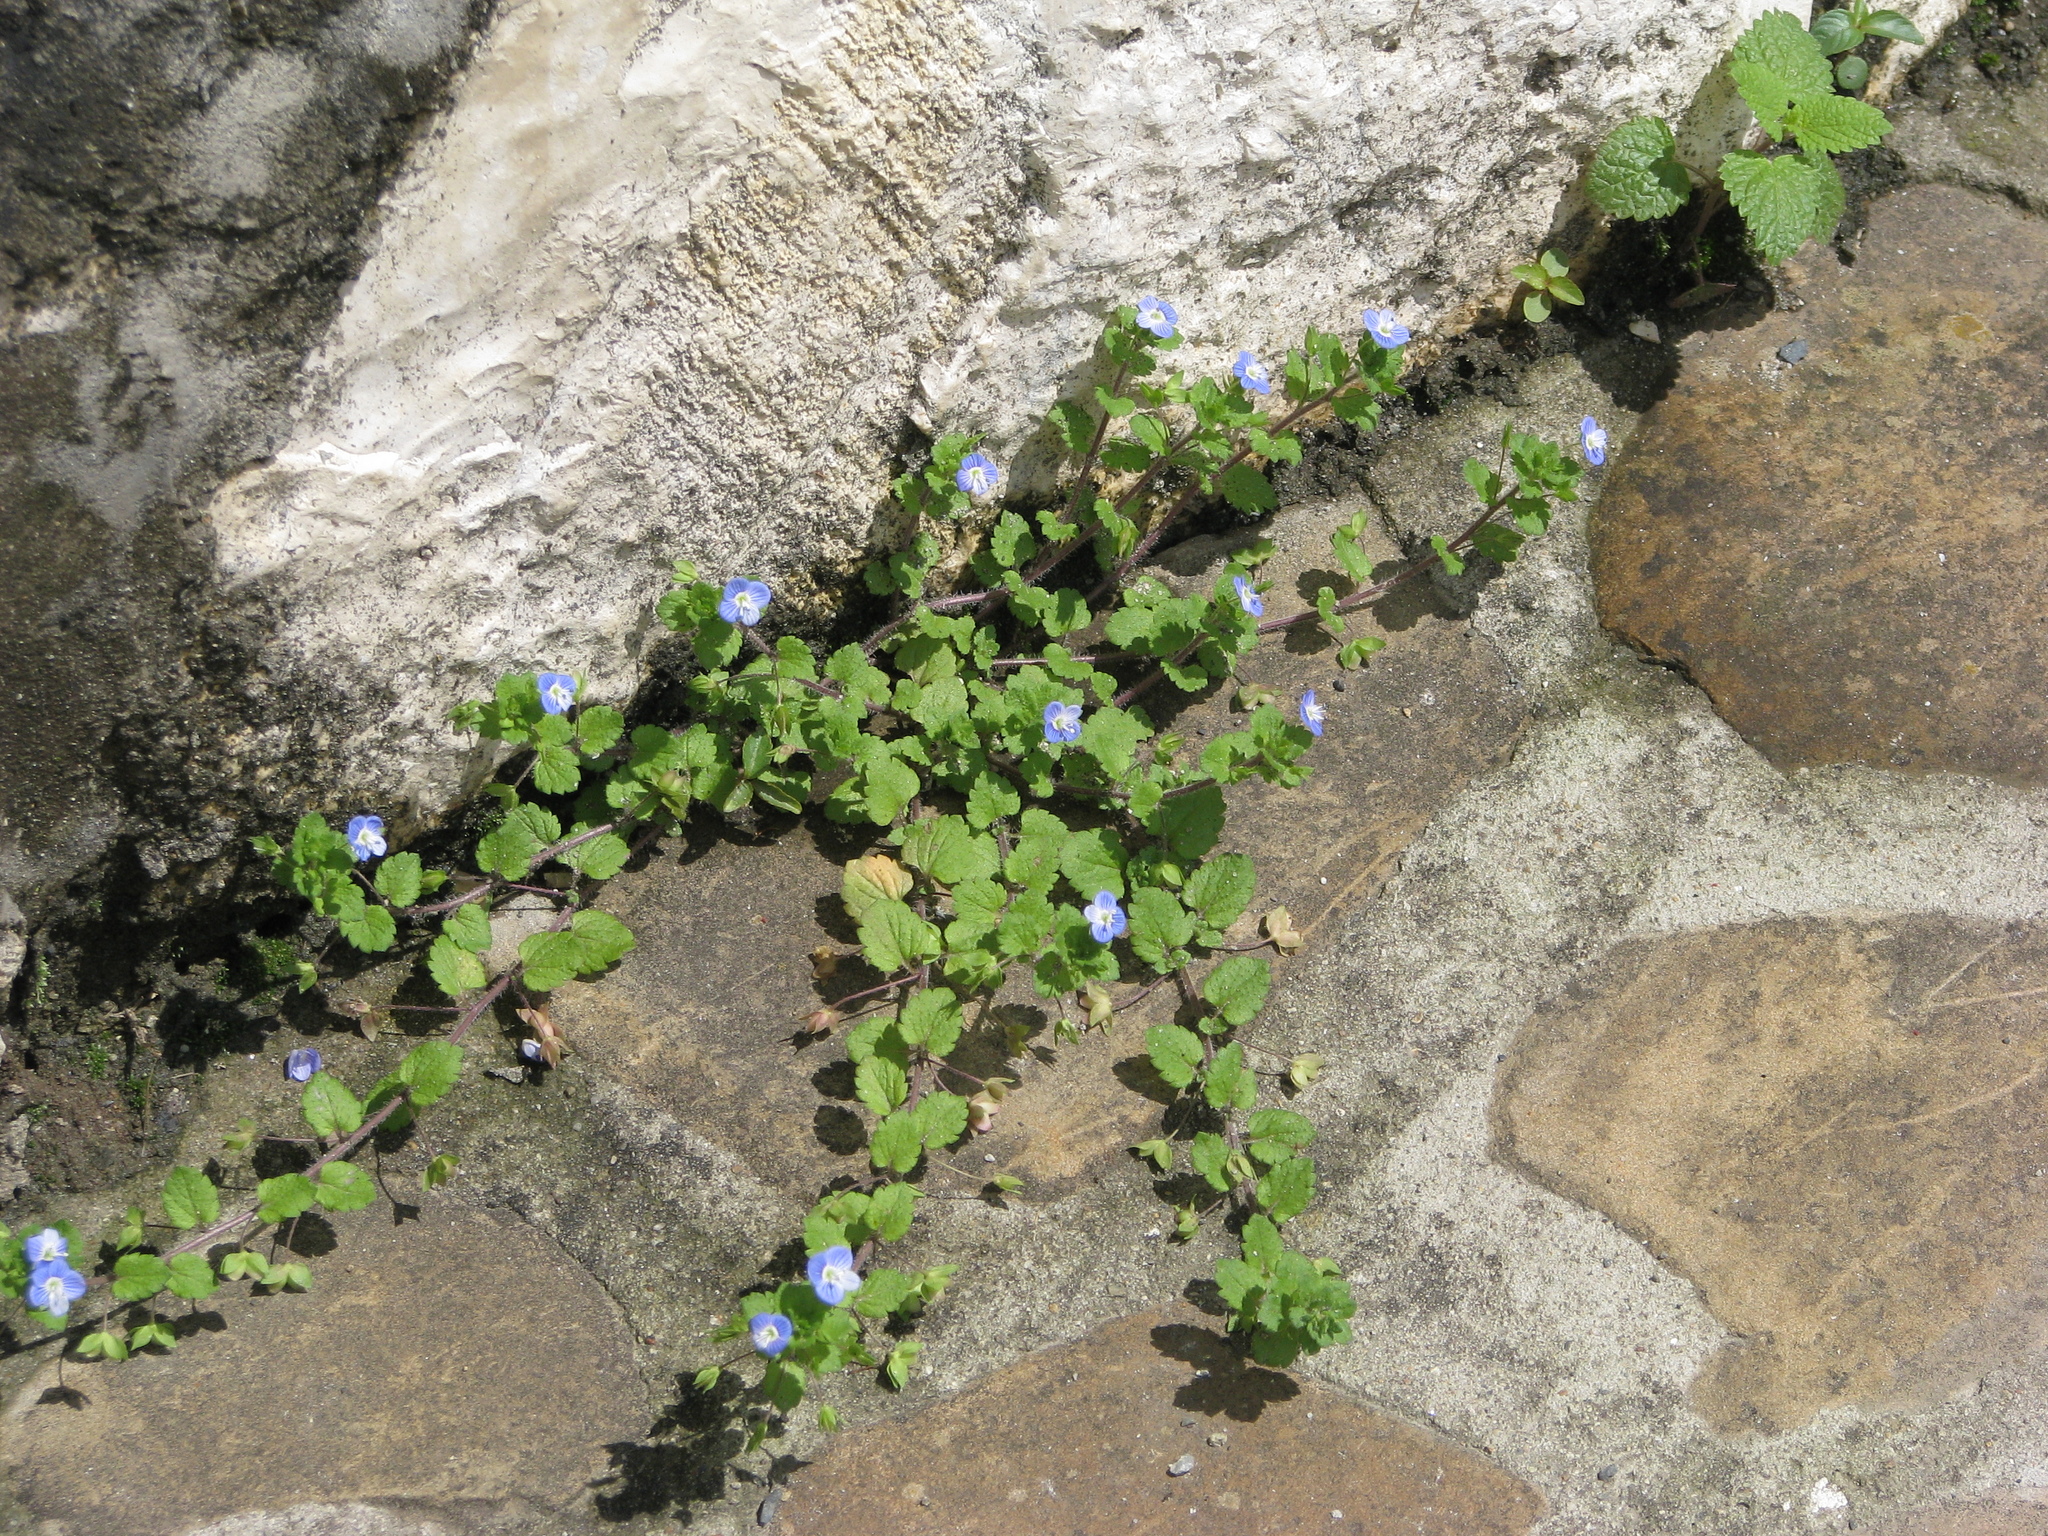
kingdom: Plantae
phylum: Tracheophyta
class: Magnoliopsida
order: Lamiales
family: Plantaginaceae
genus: Veronica
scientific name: Veronica persica
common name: Common field-speedwell
